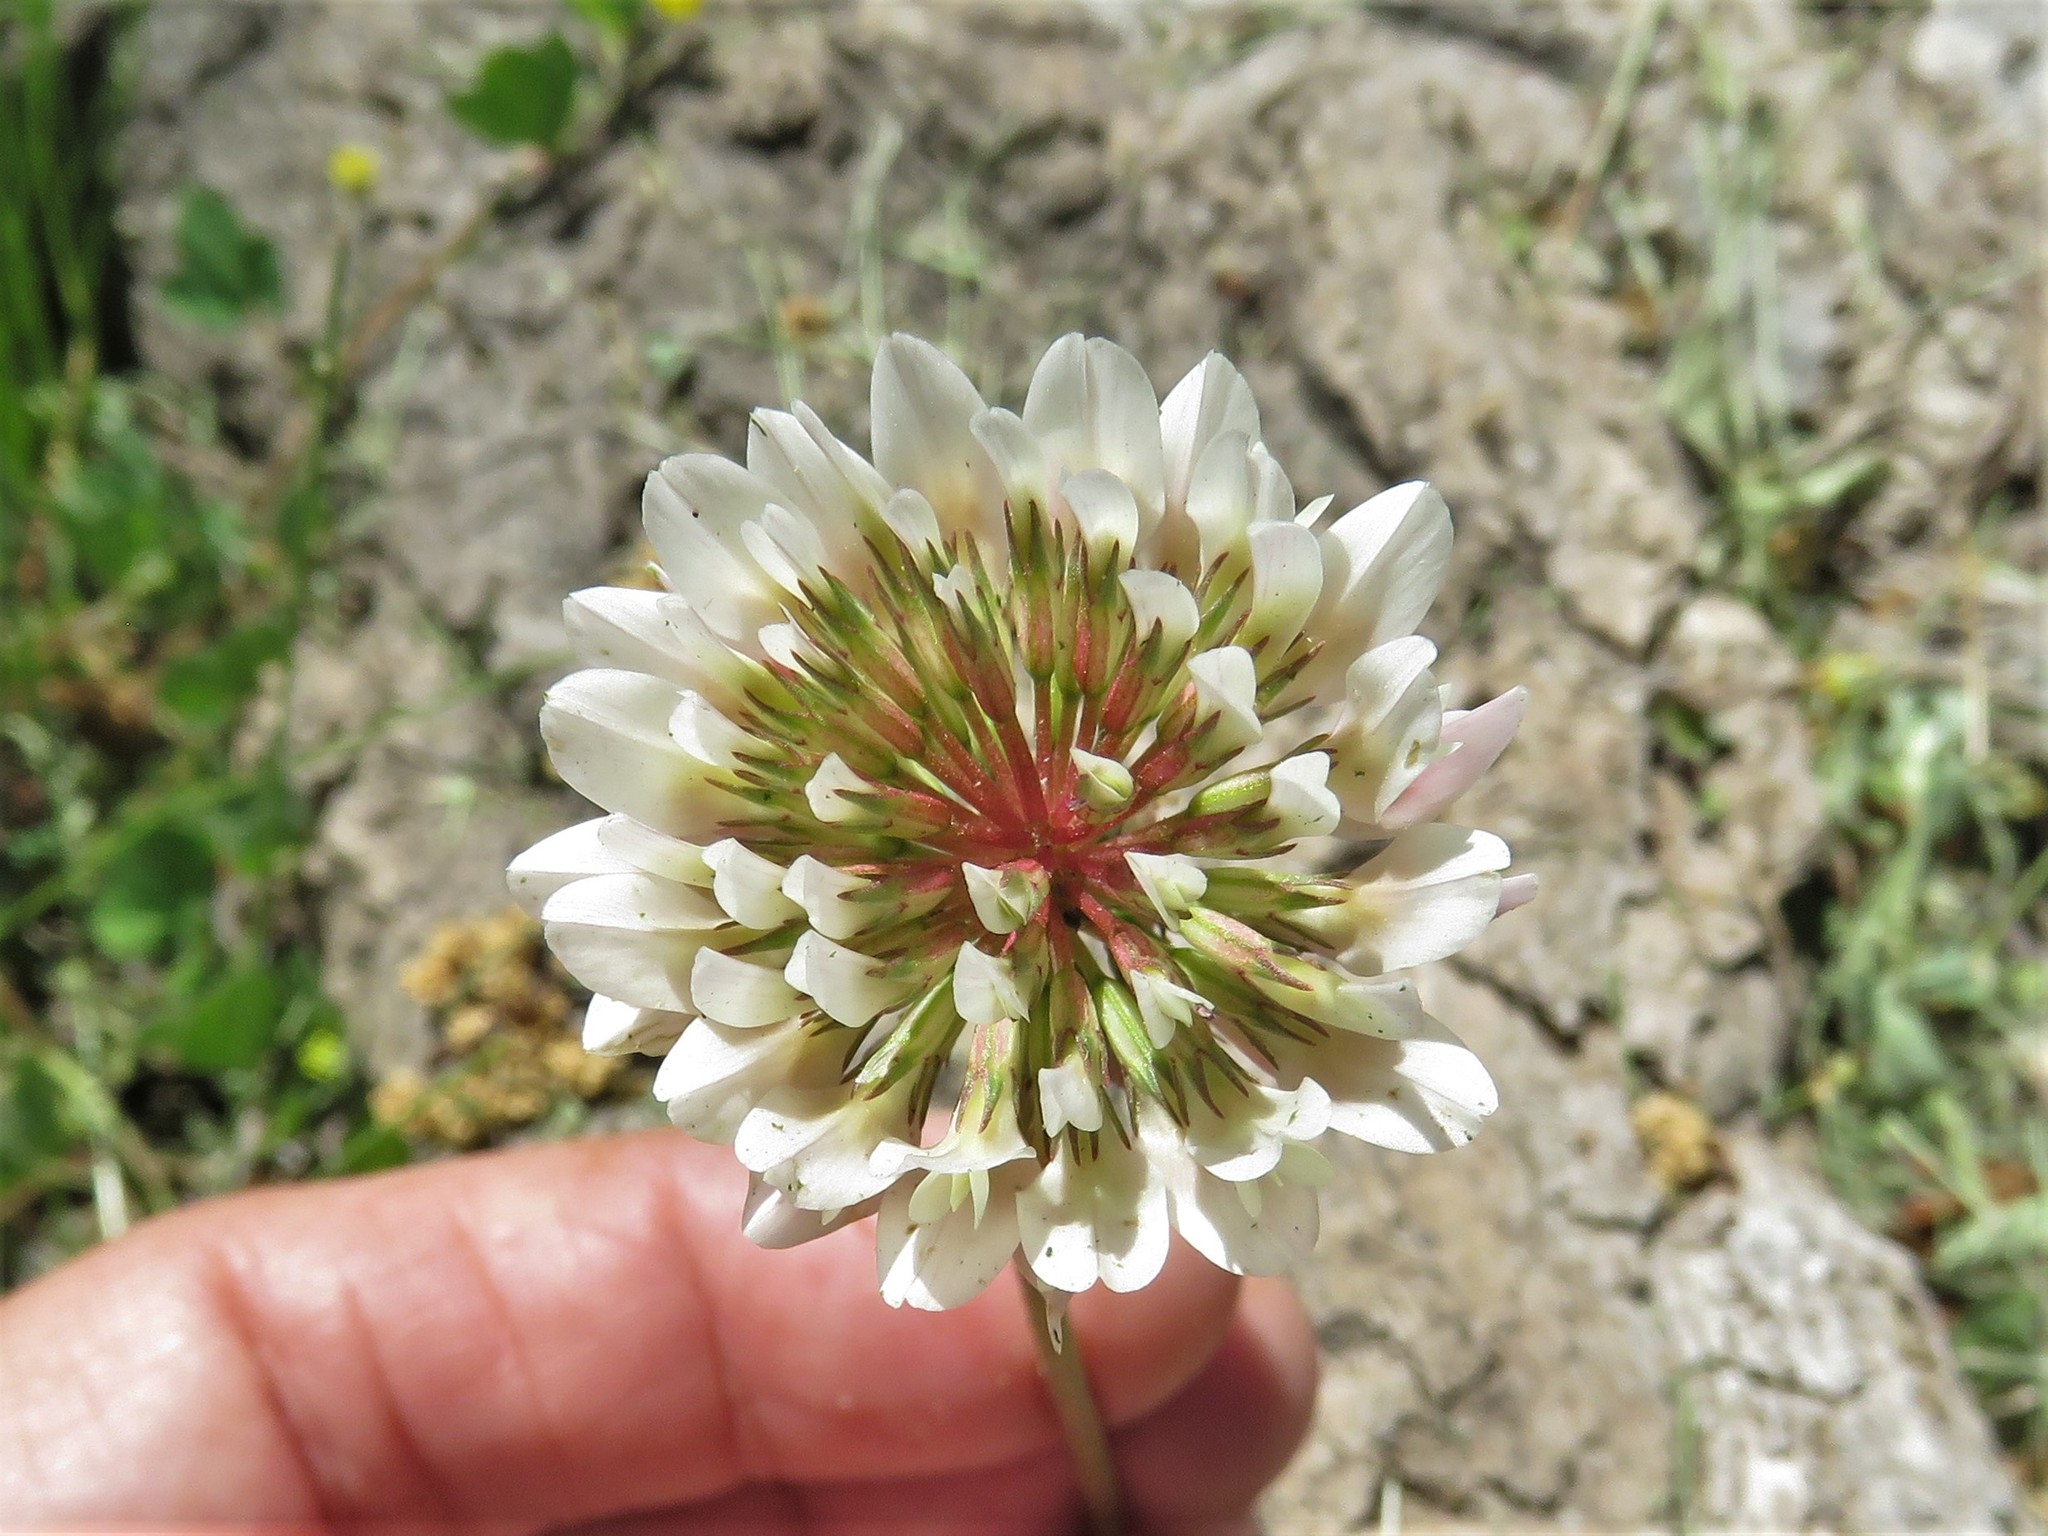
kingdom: Plantae
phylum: Tracheophyta
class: Magnoliopsida
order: Fabales
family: Fabaceae
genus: Trifolium
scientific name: Trifolium repens
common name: White clover
